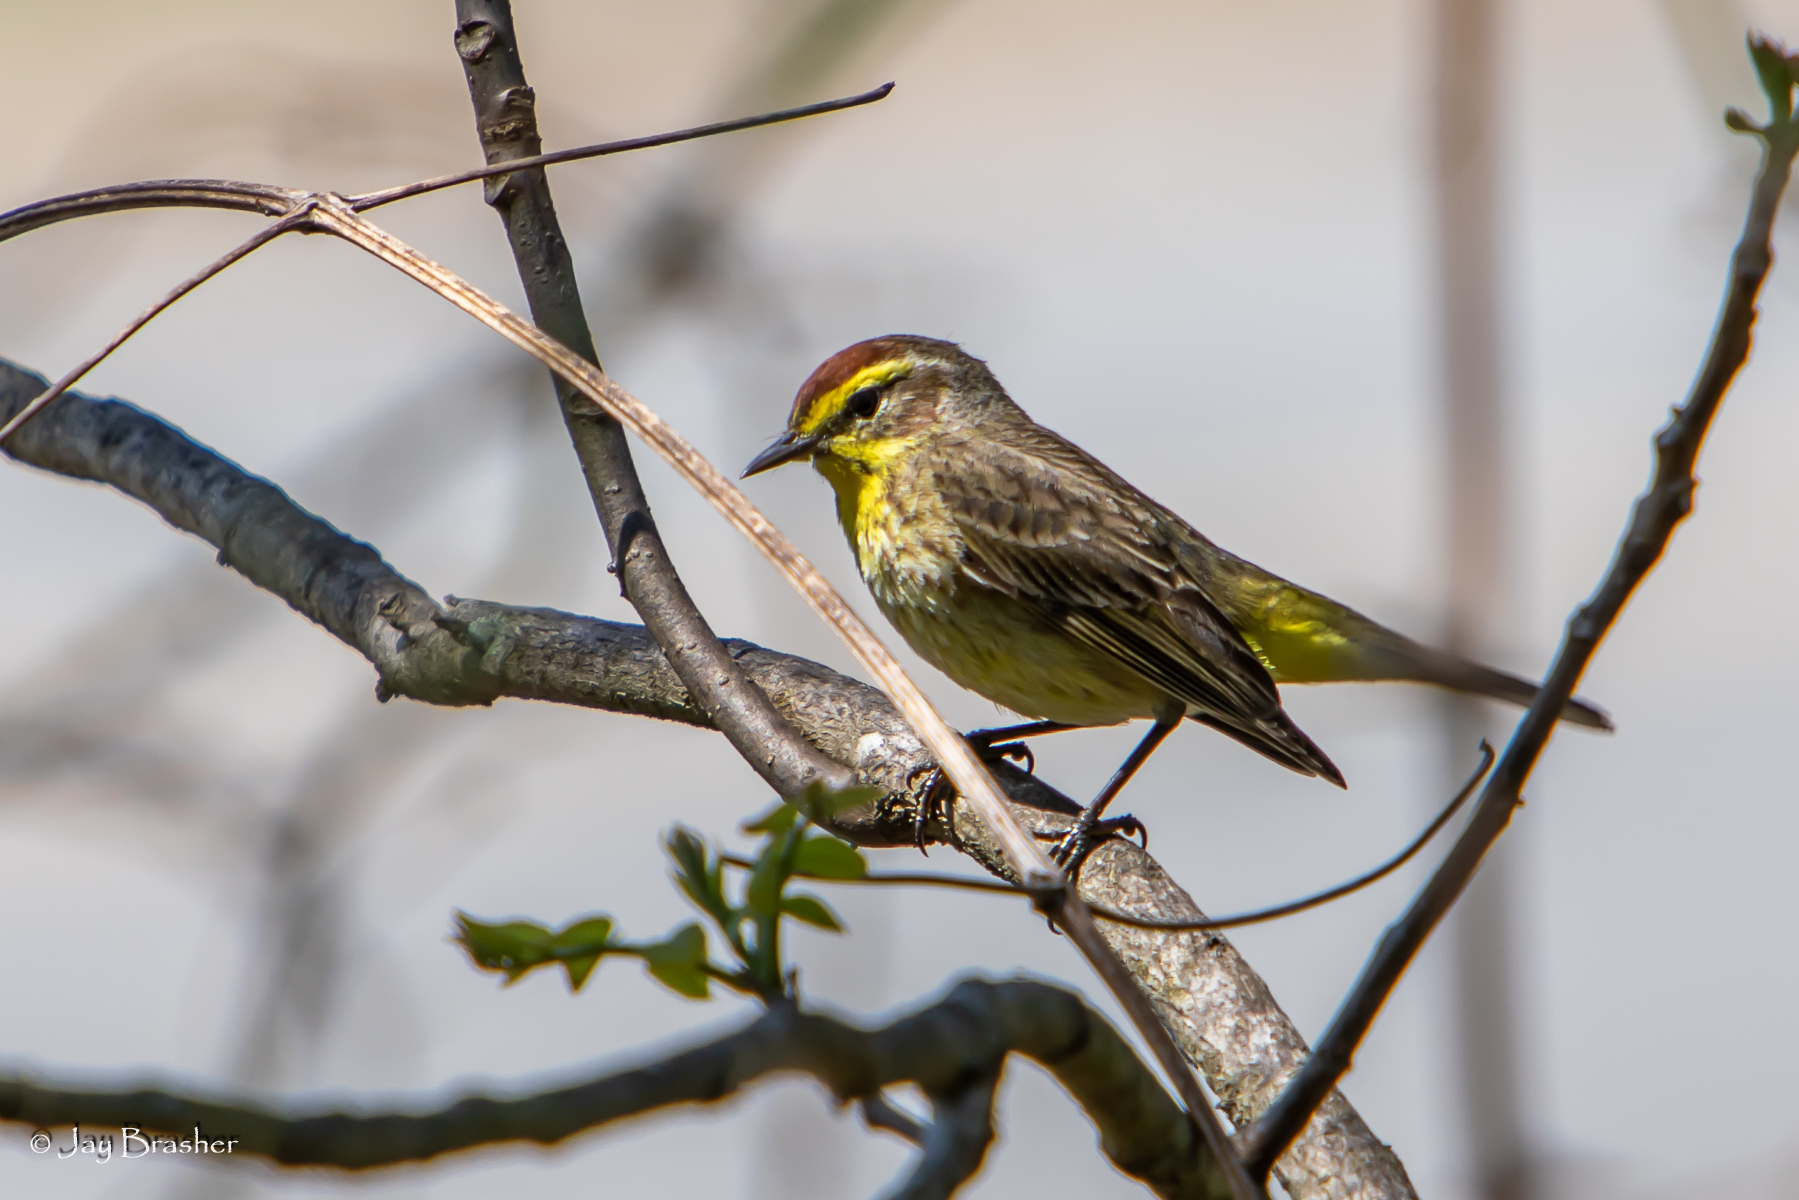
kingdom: Animalia
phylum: Chordata
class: Aves
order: Passeriformes
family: Parulidae
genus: Setophaga
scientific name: Setophaga palmarum
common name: Palm warbler
